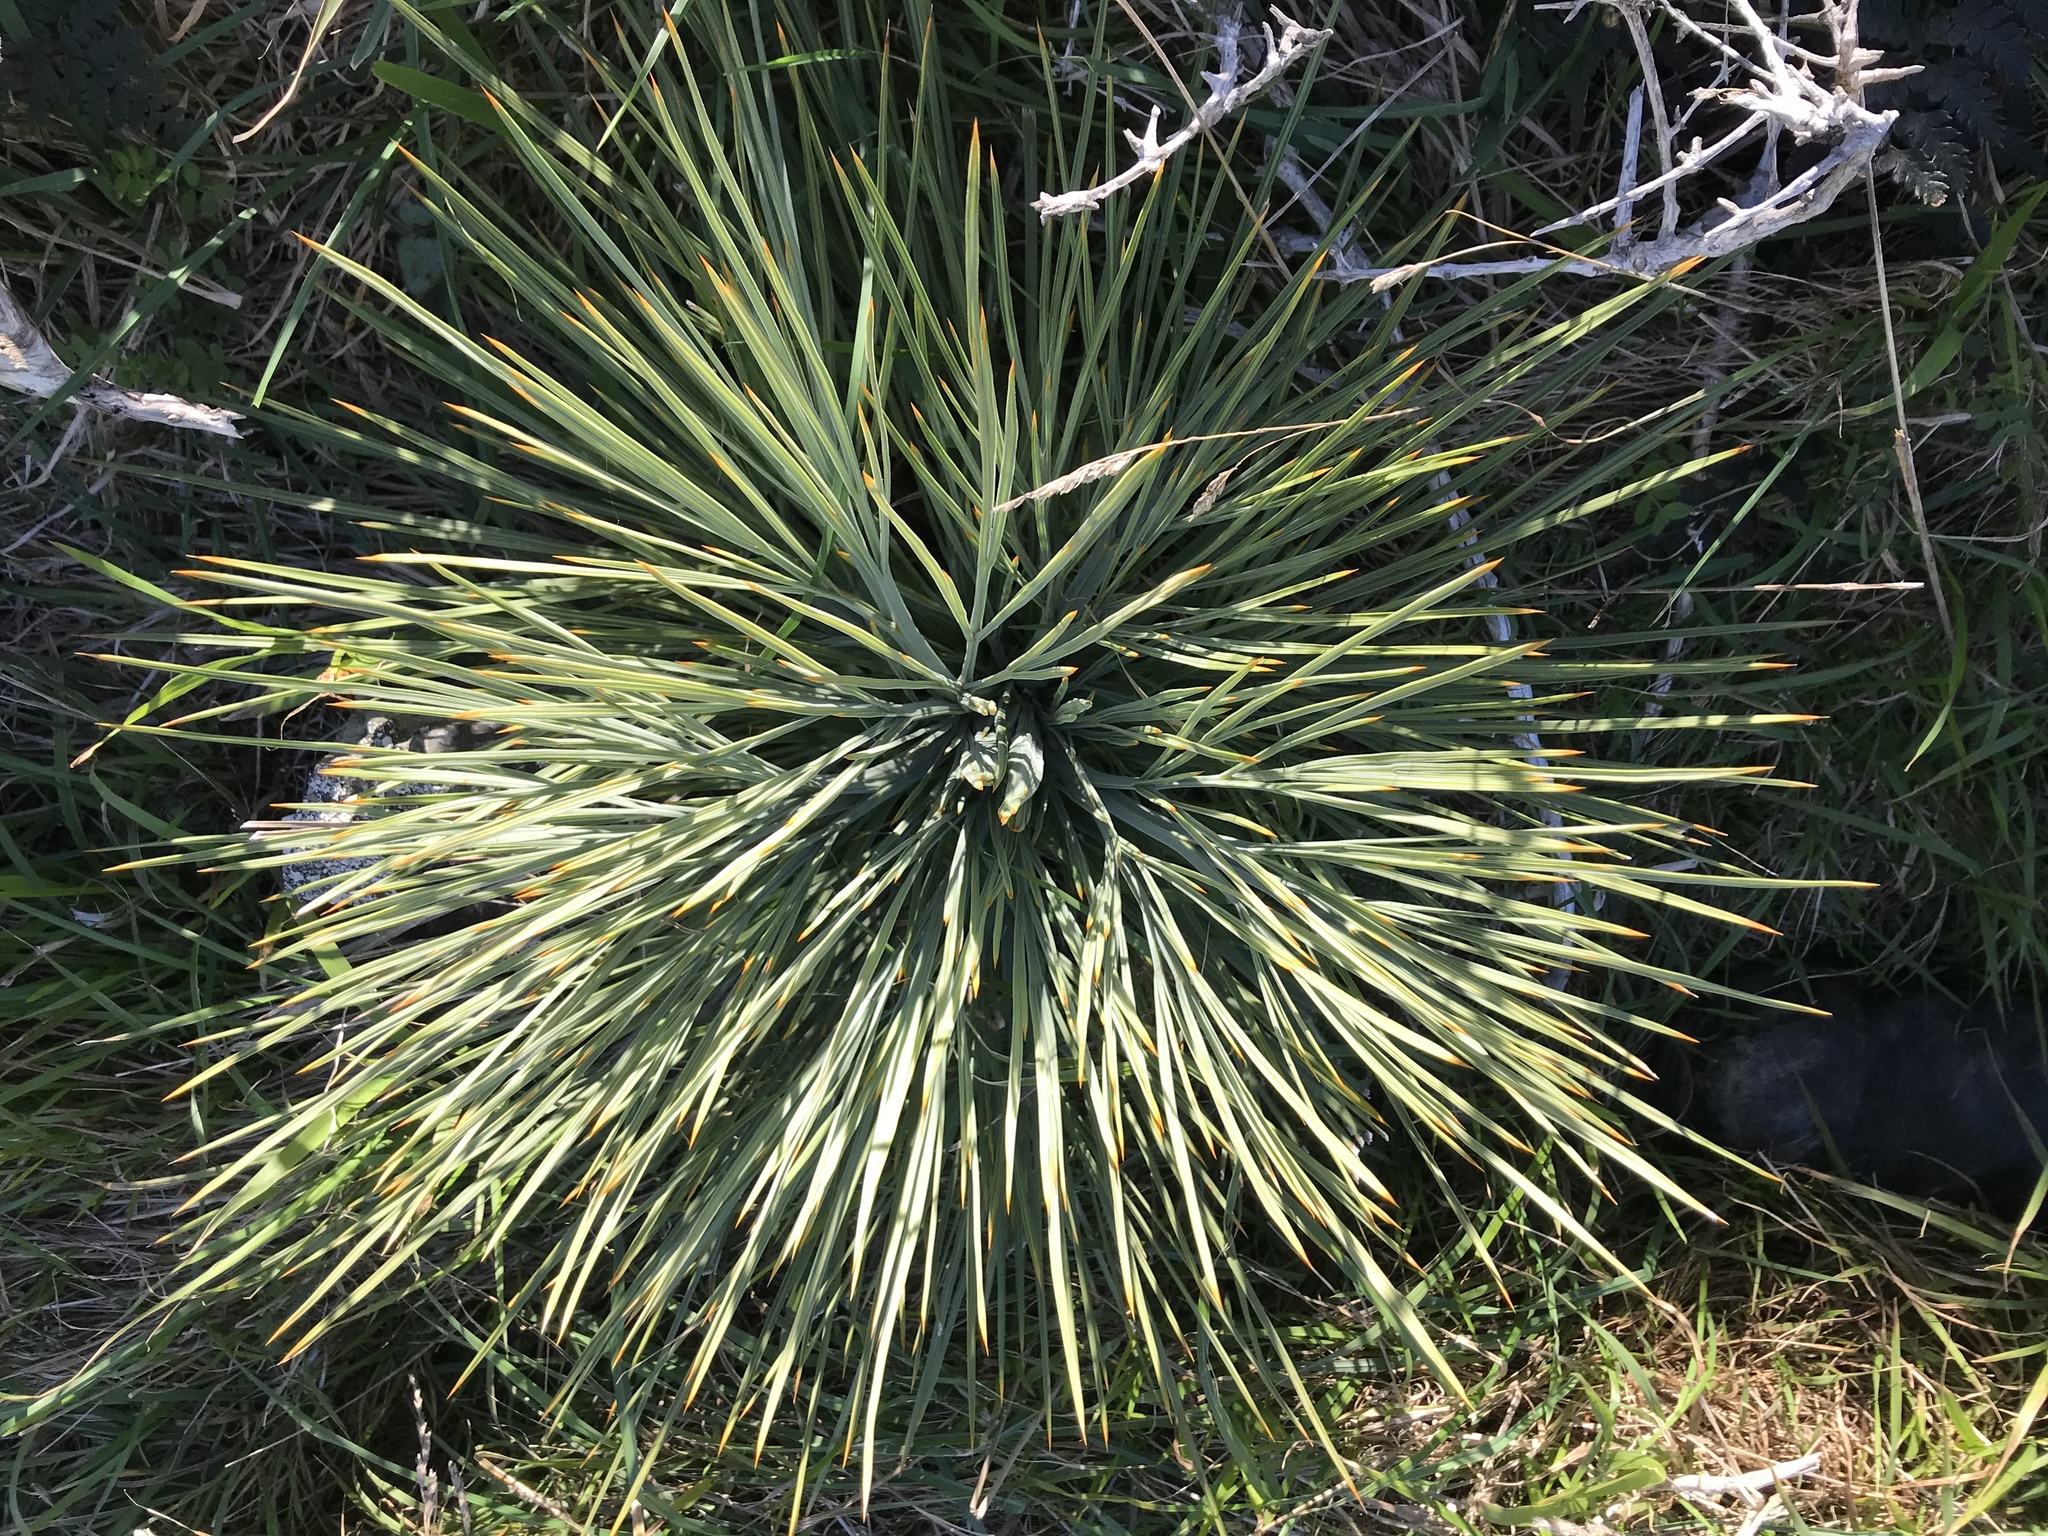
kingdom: Plantae
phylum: Tracheophyta
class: Magnoliopsida
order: Apiales
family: Apiaceae
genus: Aciphylla
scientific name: Aciphylla squarrosa
